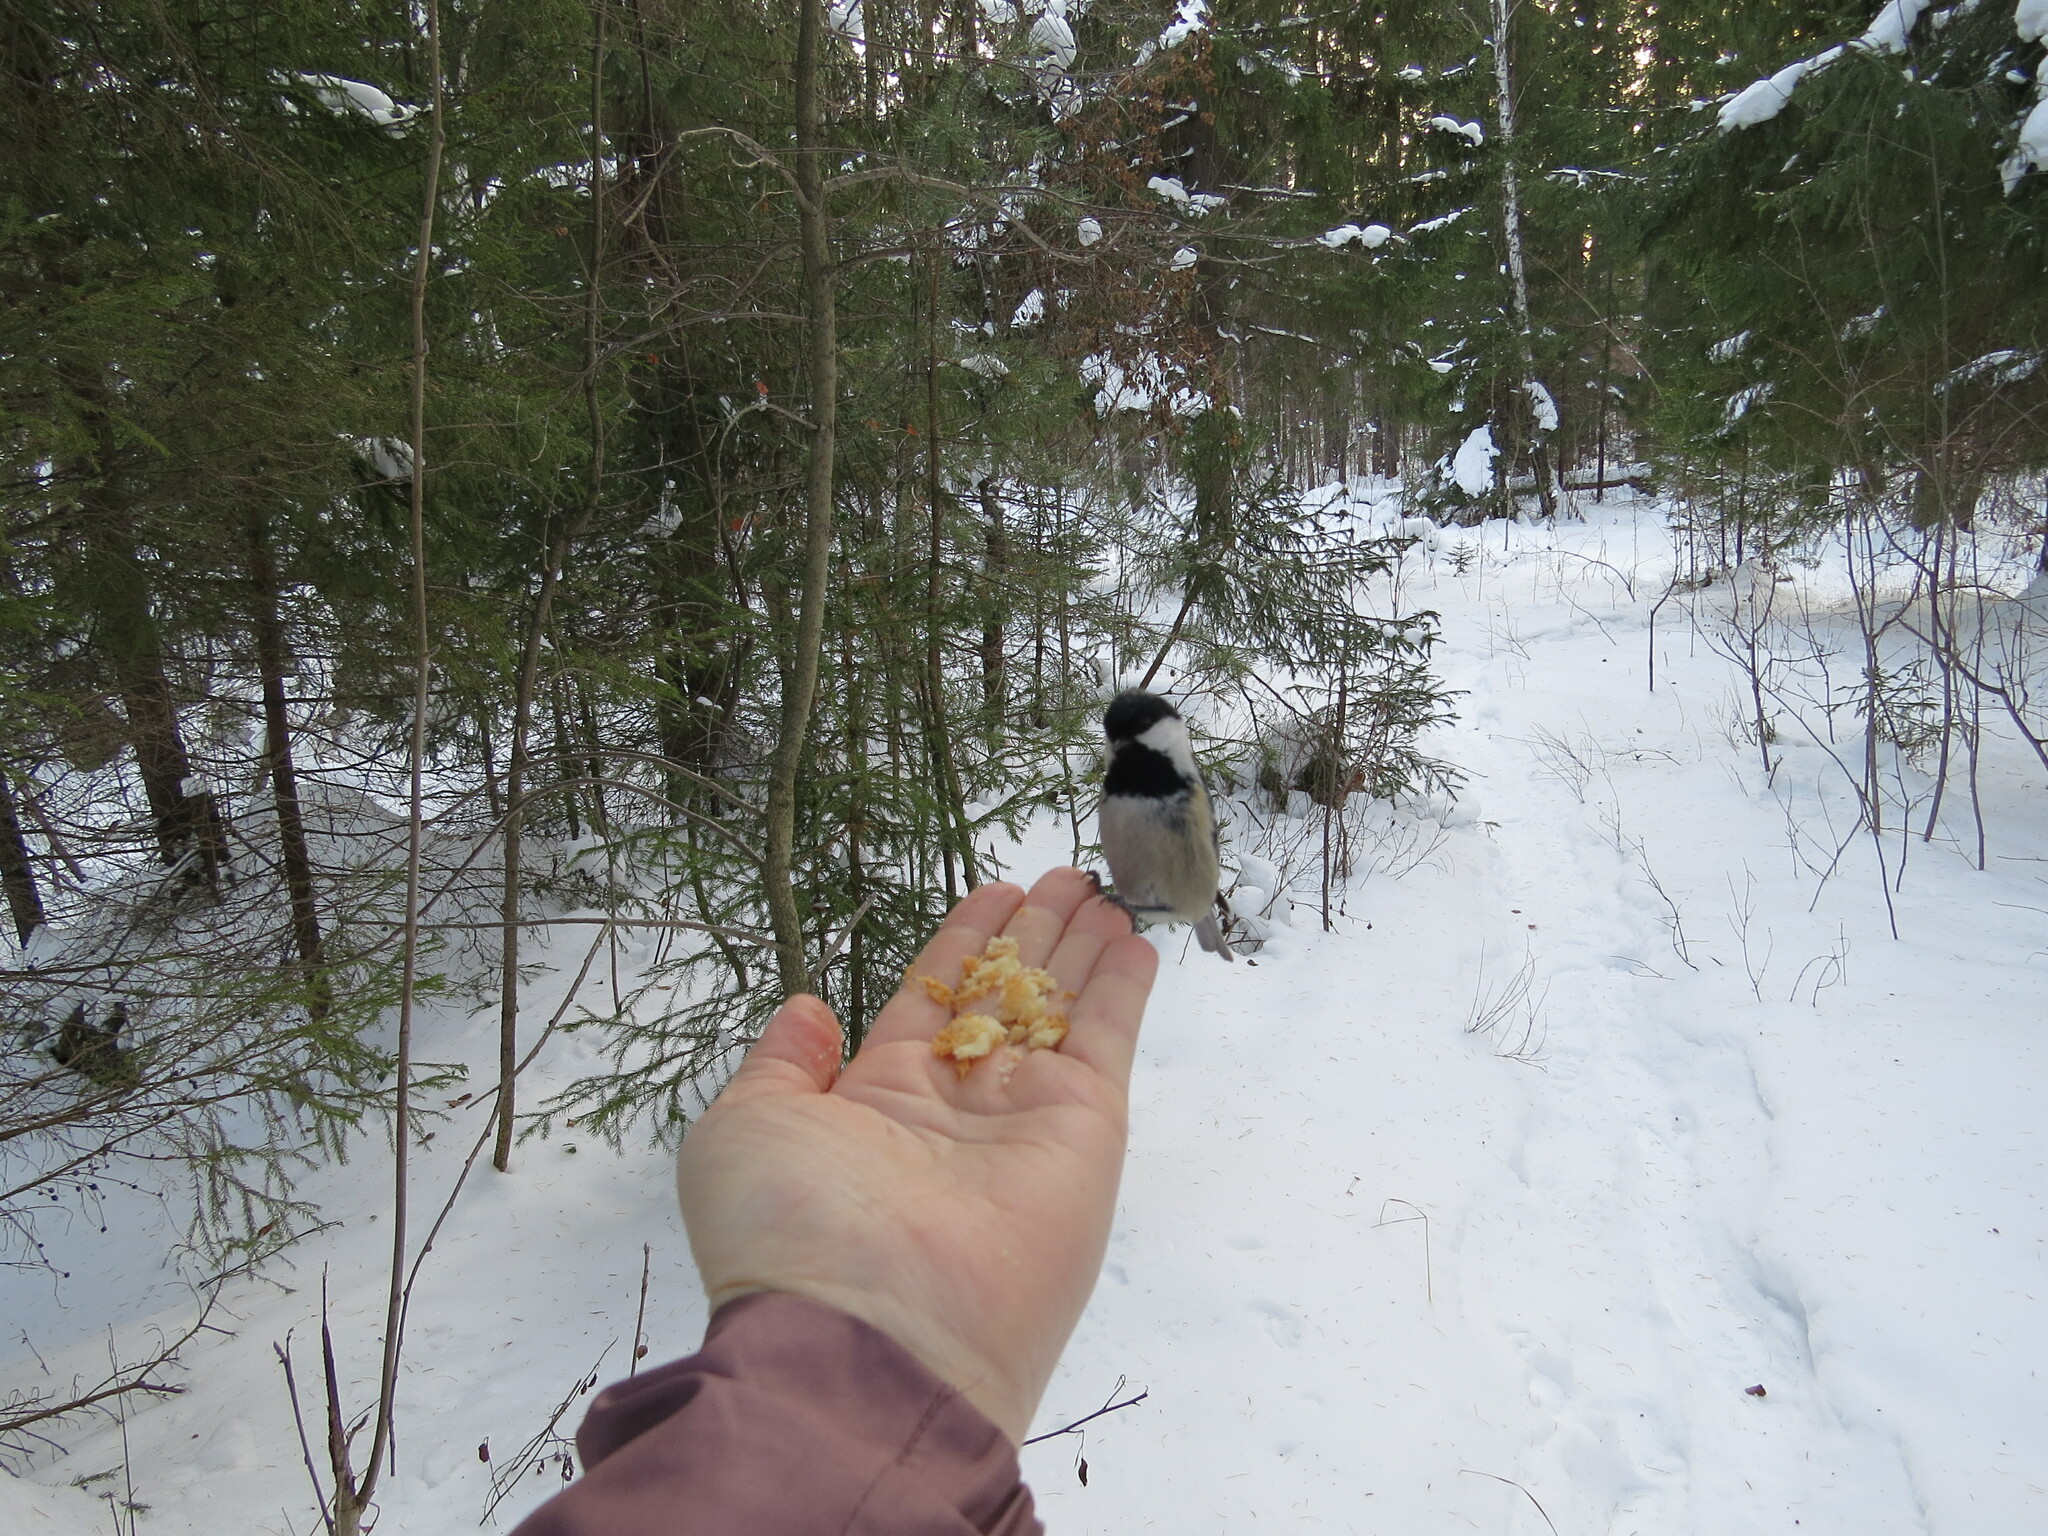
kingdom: Animalia
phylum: Chordata
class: Aves
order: Passeriformes
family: Paridae
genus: Periparus
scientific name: Periparus ater
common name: Coal tit
